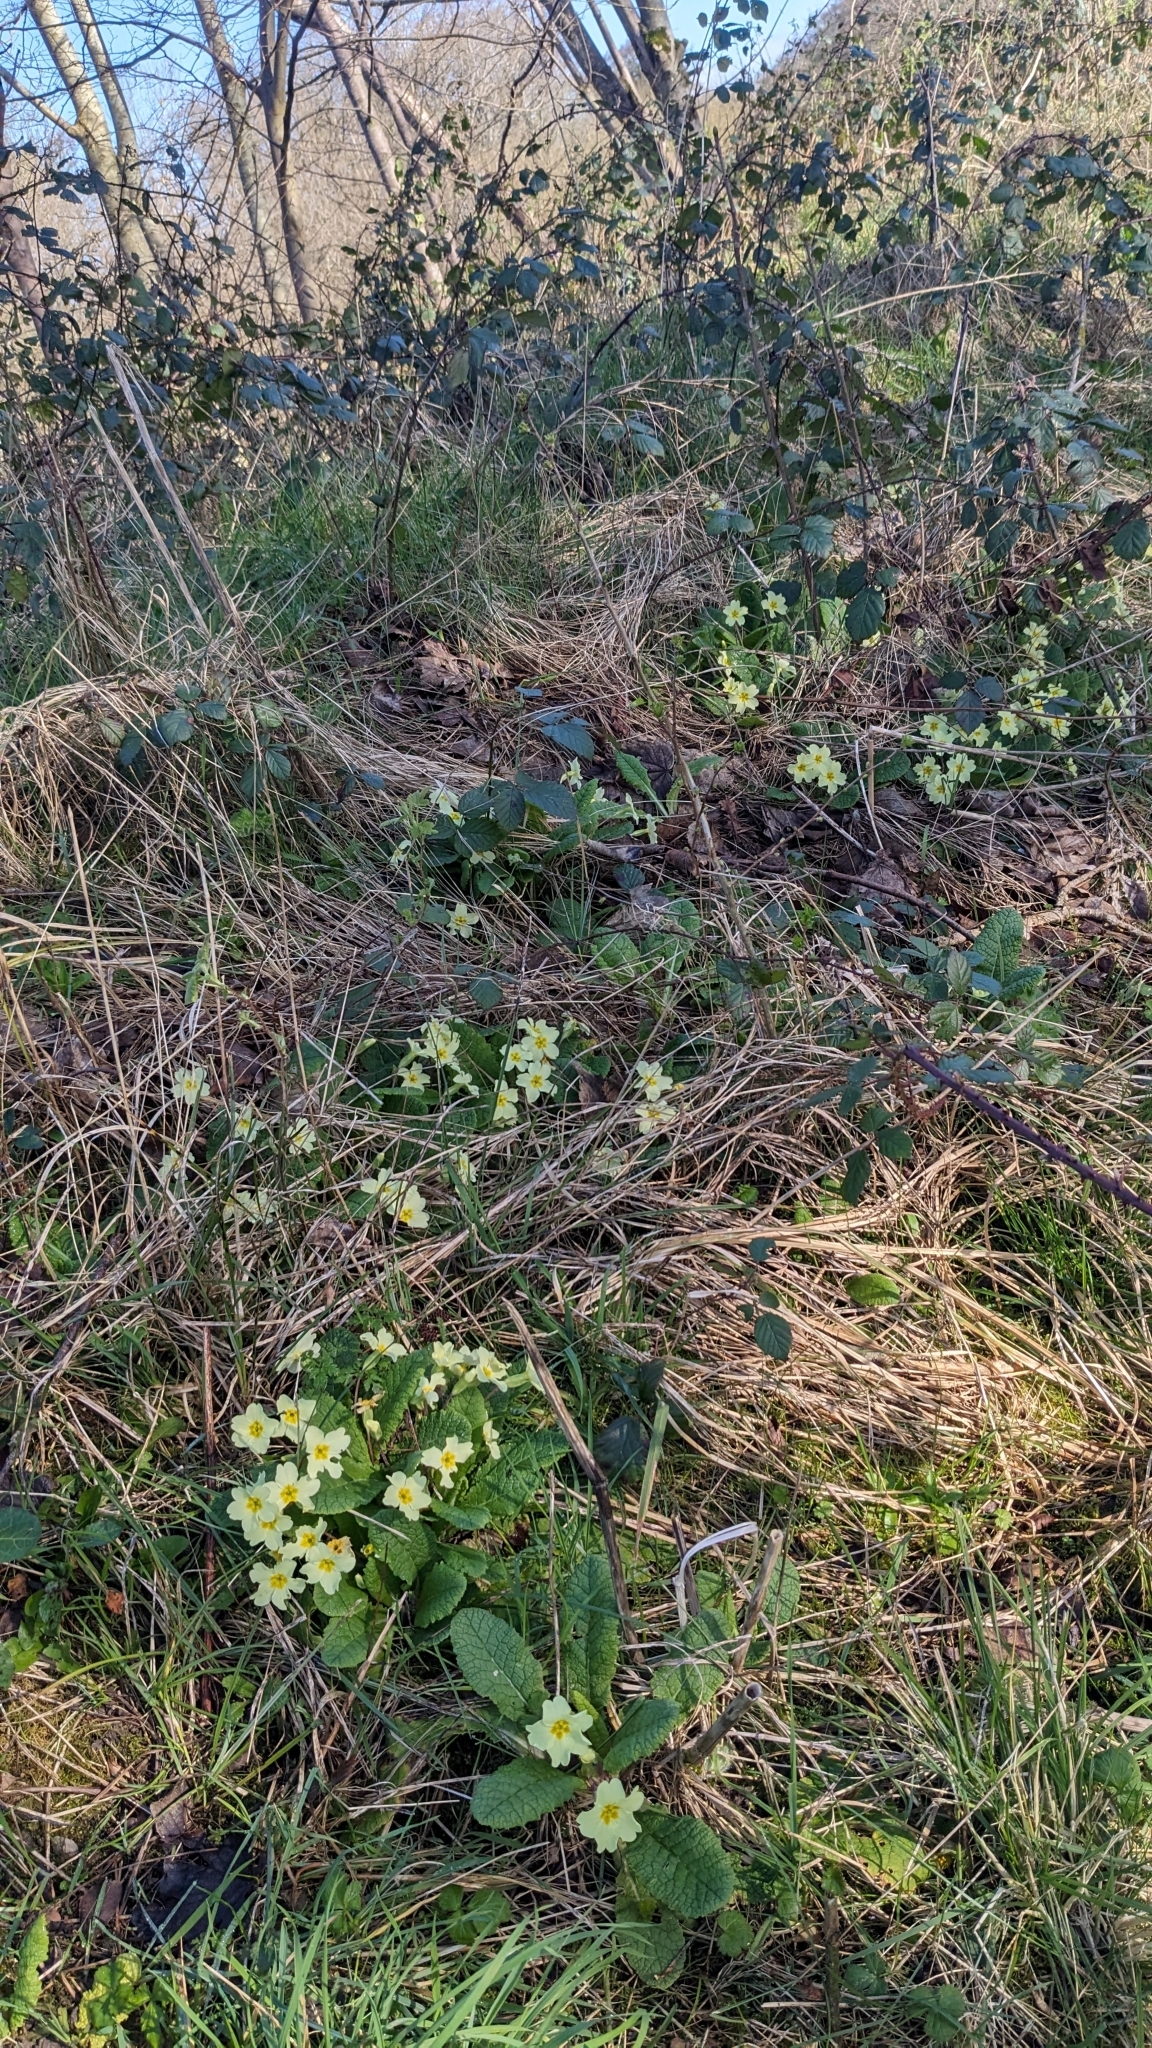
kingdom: Plantae
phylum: Tracheophyta
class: Magnoliopsida
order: Ericales
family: Primulaceae
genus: Primula
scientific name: Primula vulgaris
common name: Primrose
